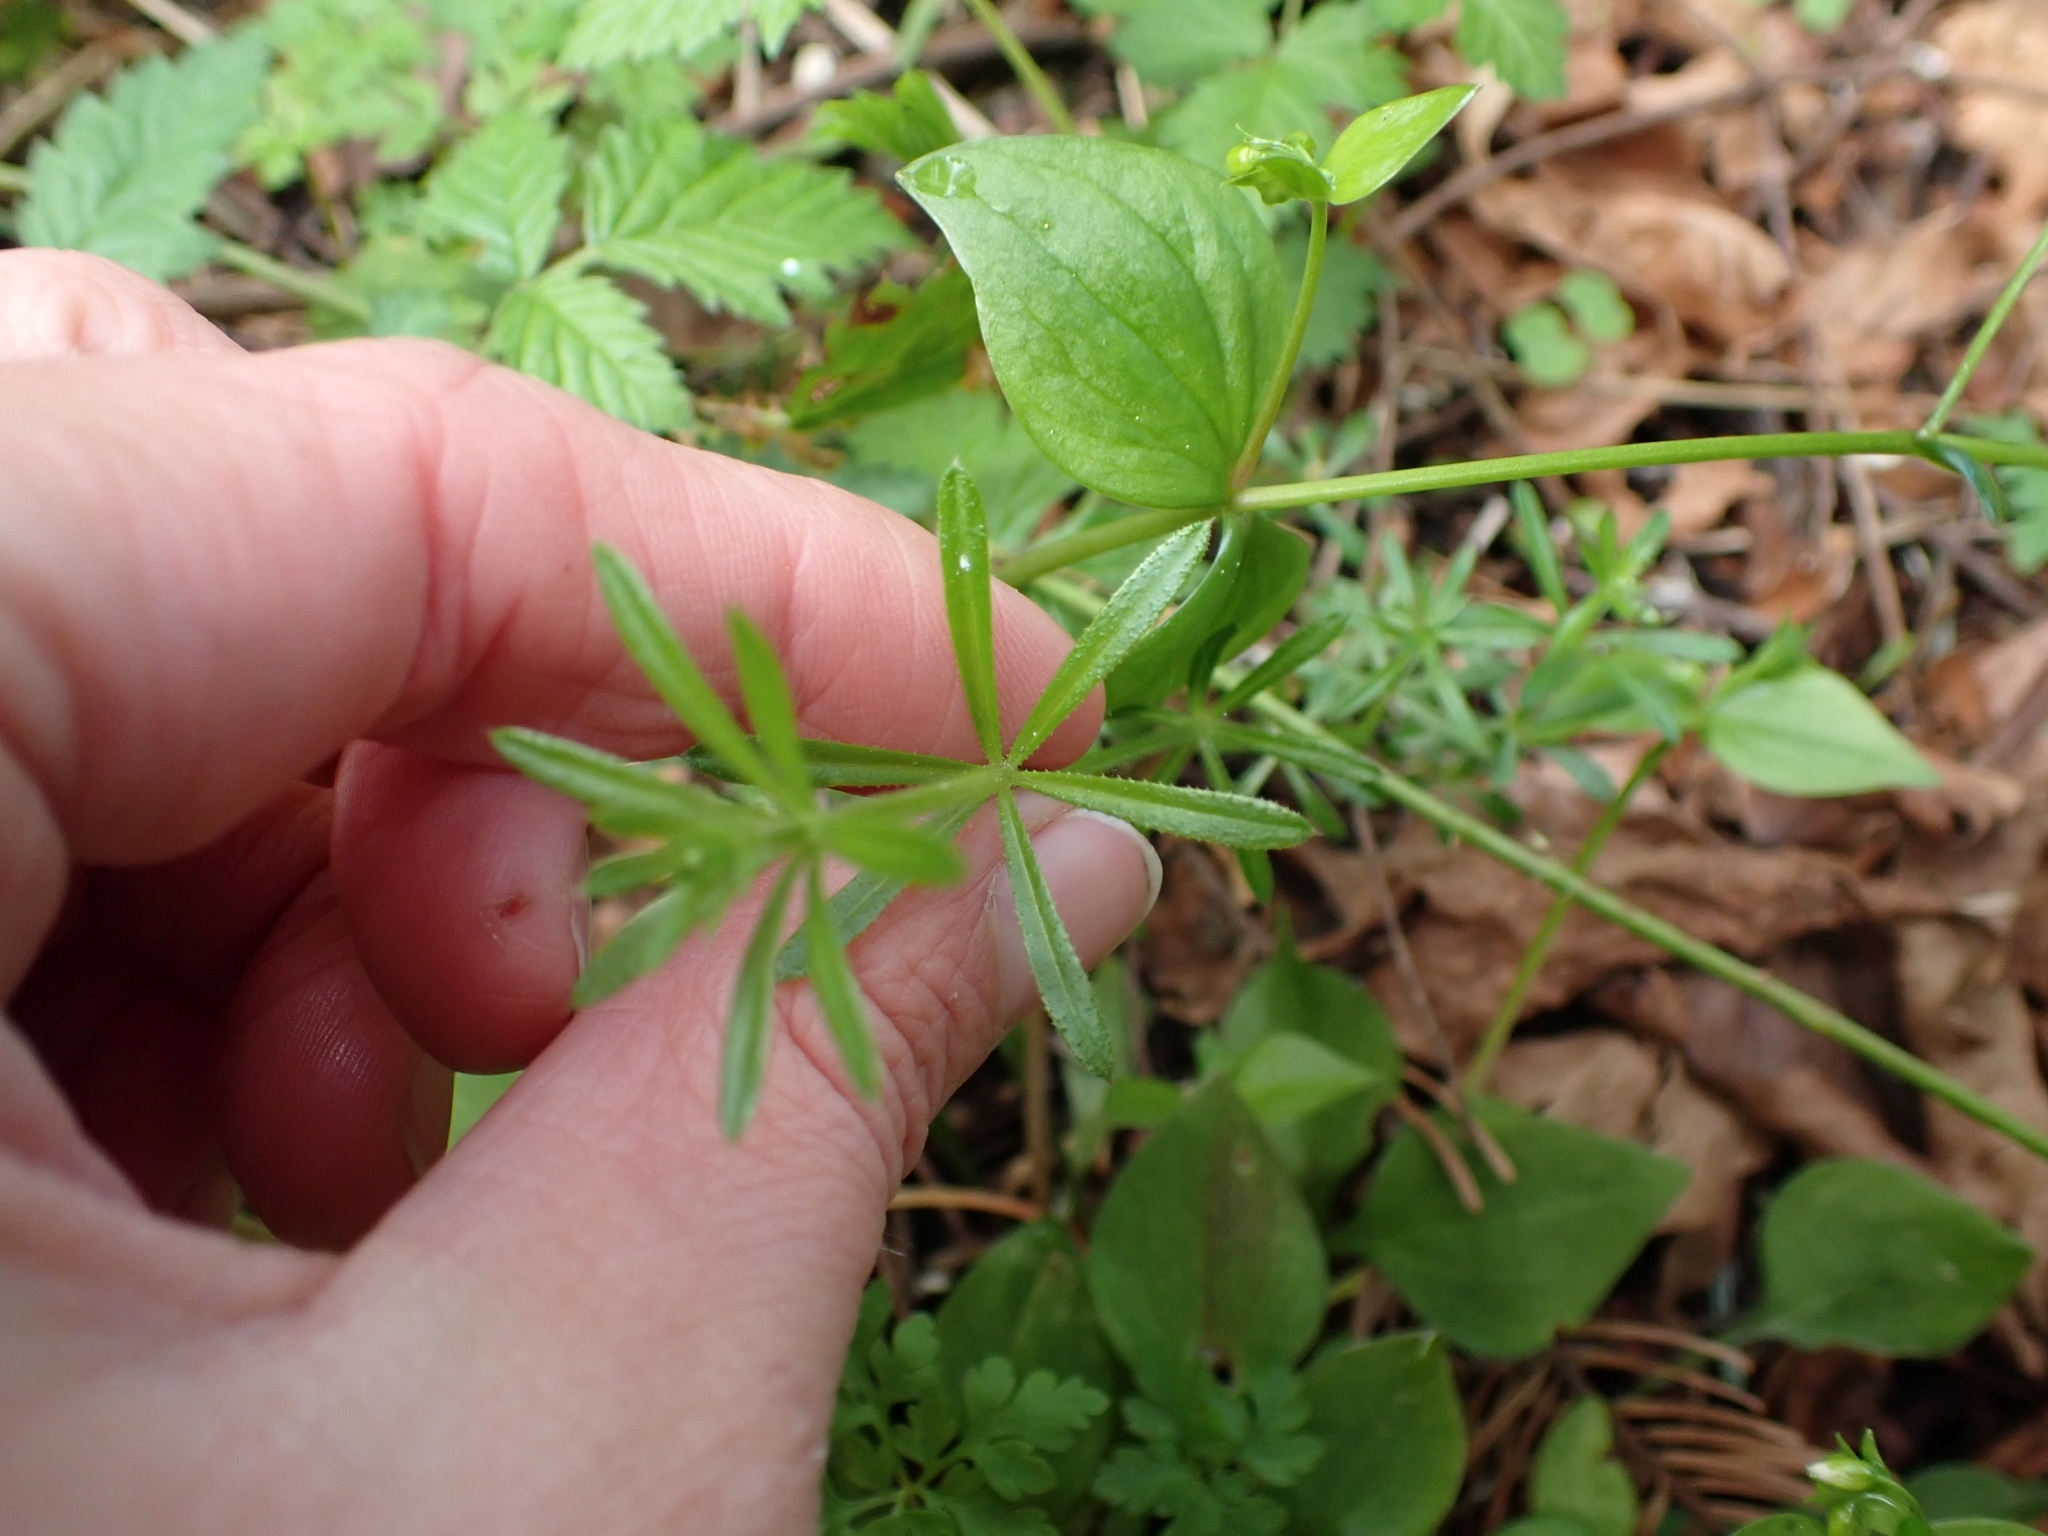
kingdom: Plantae
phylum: Tracheophyta
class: Magnoliopsida
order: Gentianales
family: Rubiaceae
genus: Galium
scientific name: Galium aparine
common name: Cleavers
